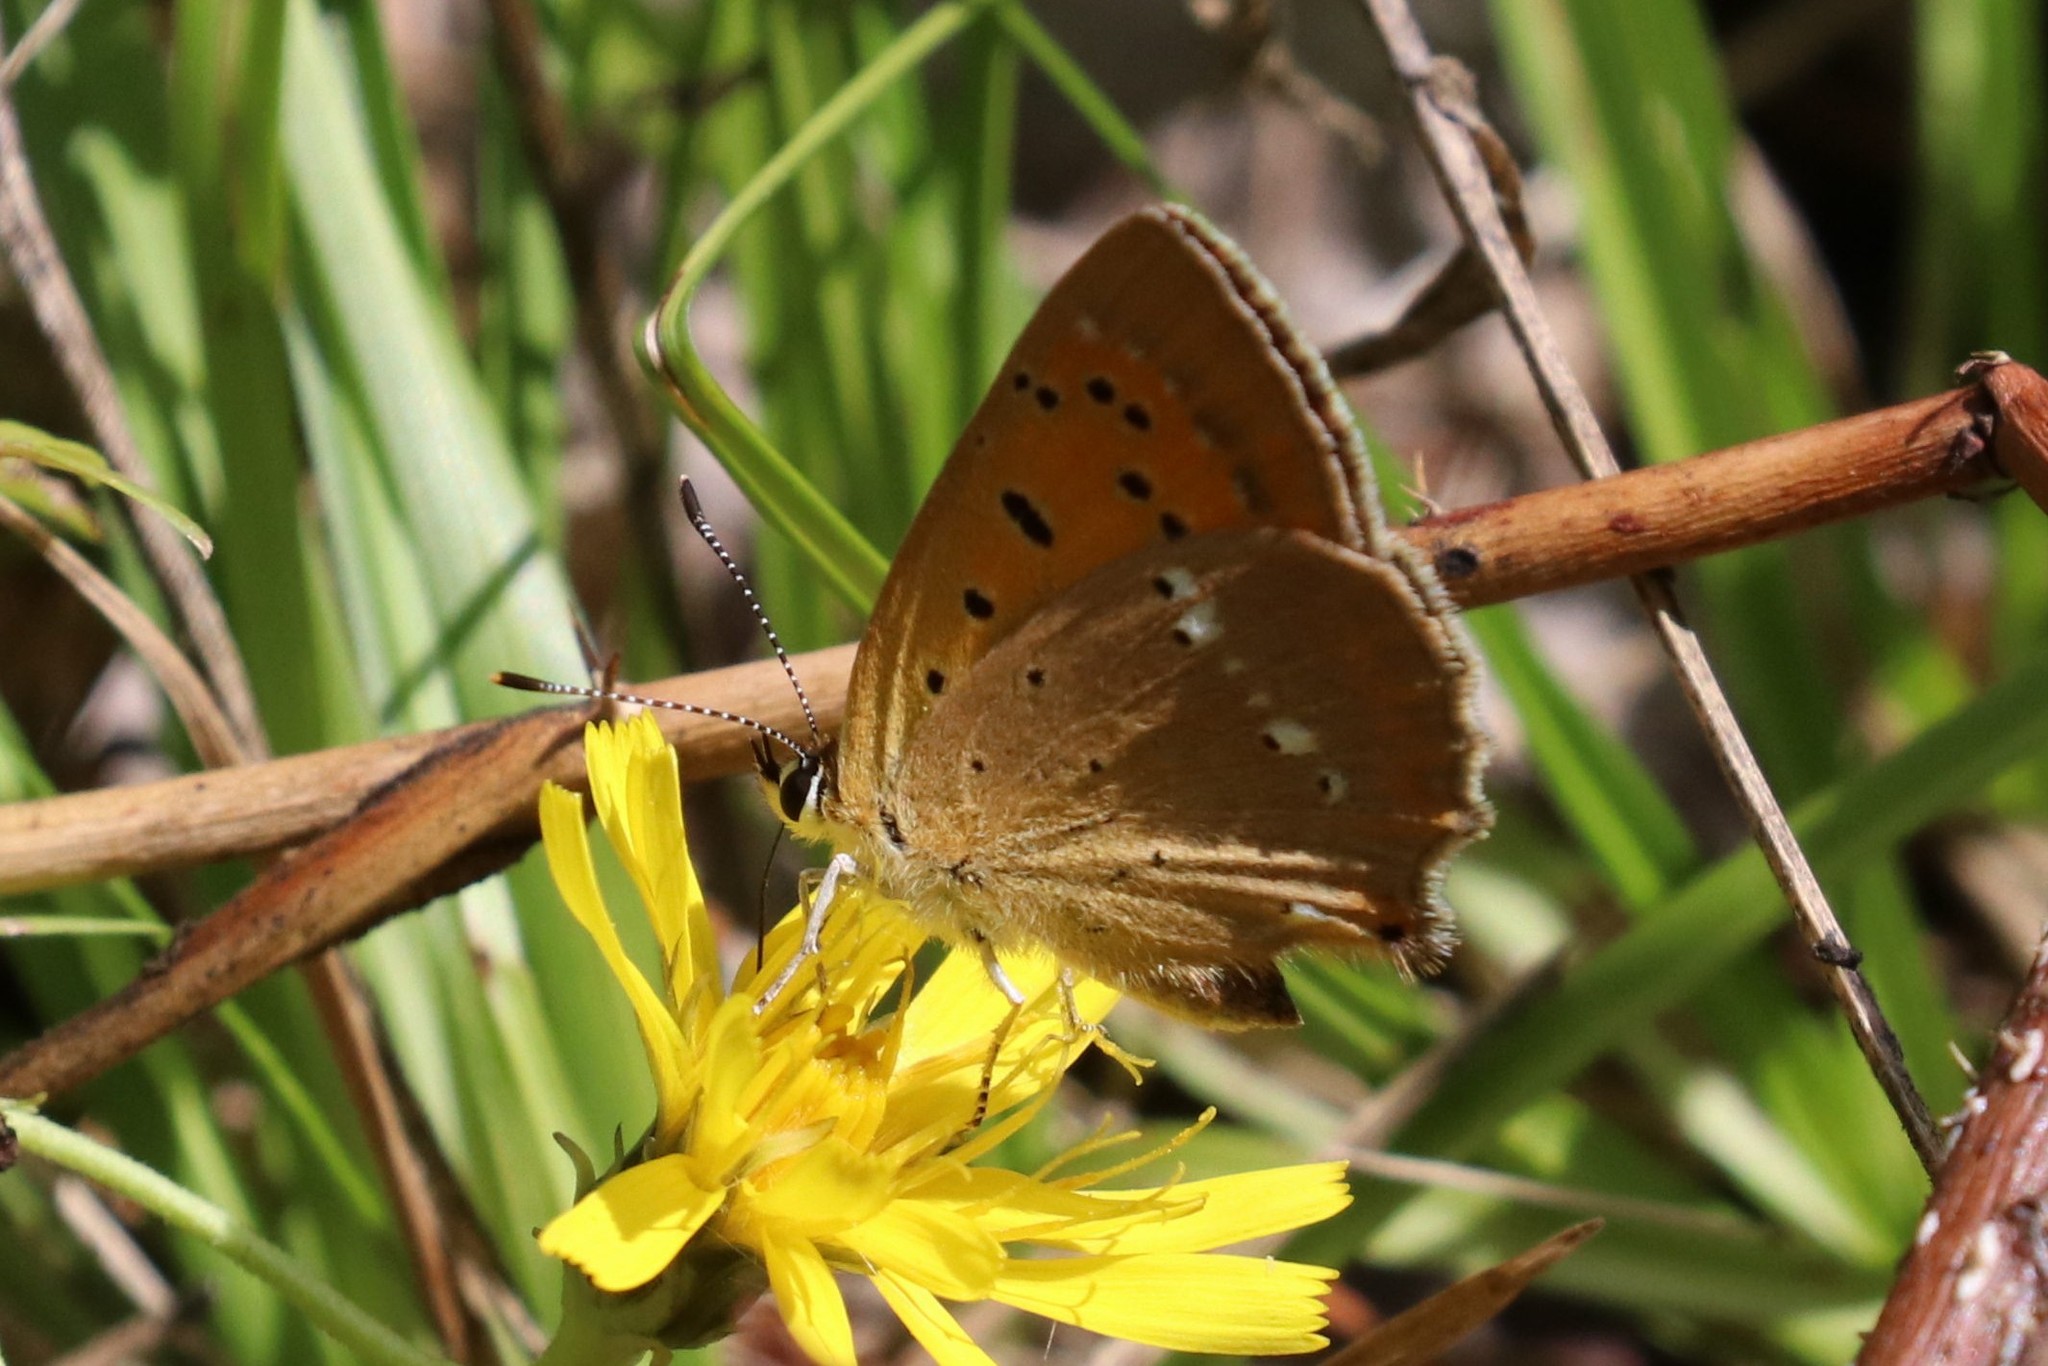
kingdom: Animalia
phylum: Arthropoda
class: Insecta
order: Lepidoptera
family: Lycaenidae
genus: Lycaena
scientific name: Lycaena virgaureae
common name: Scarce copper
